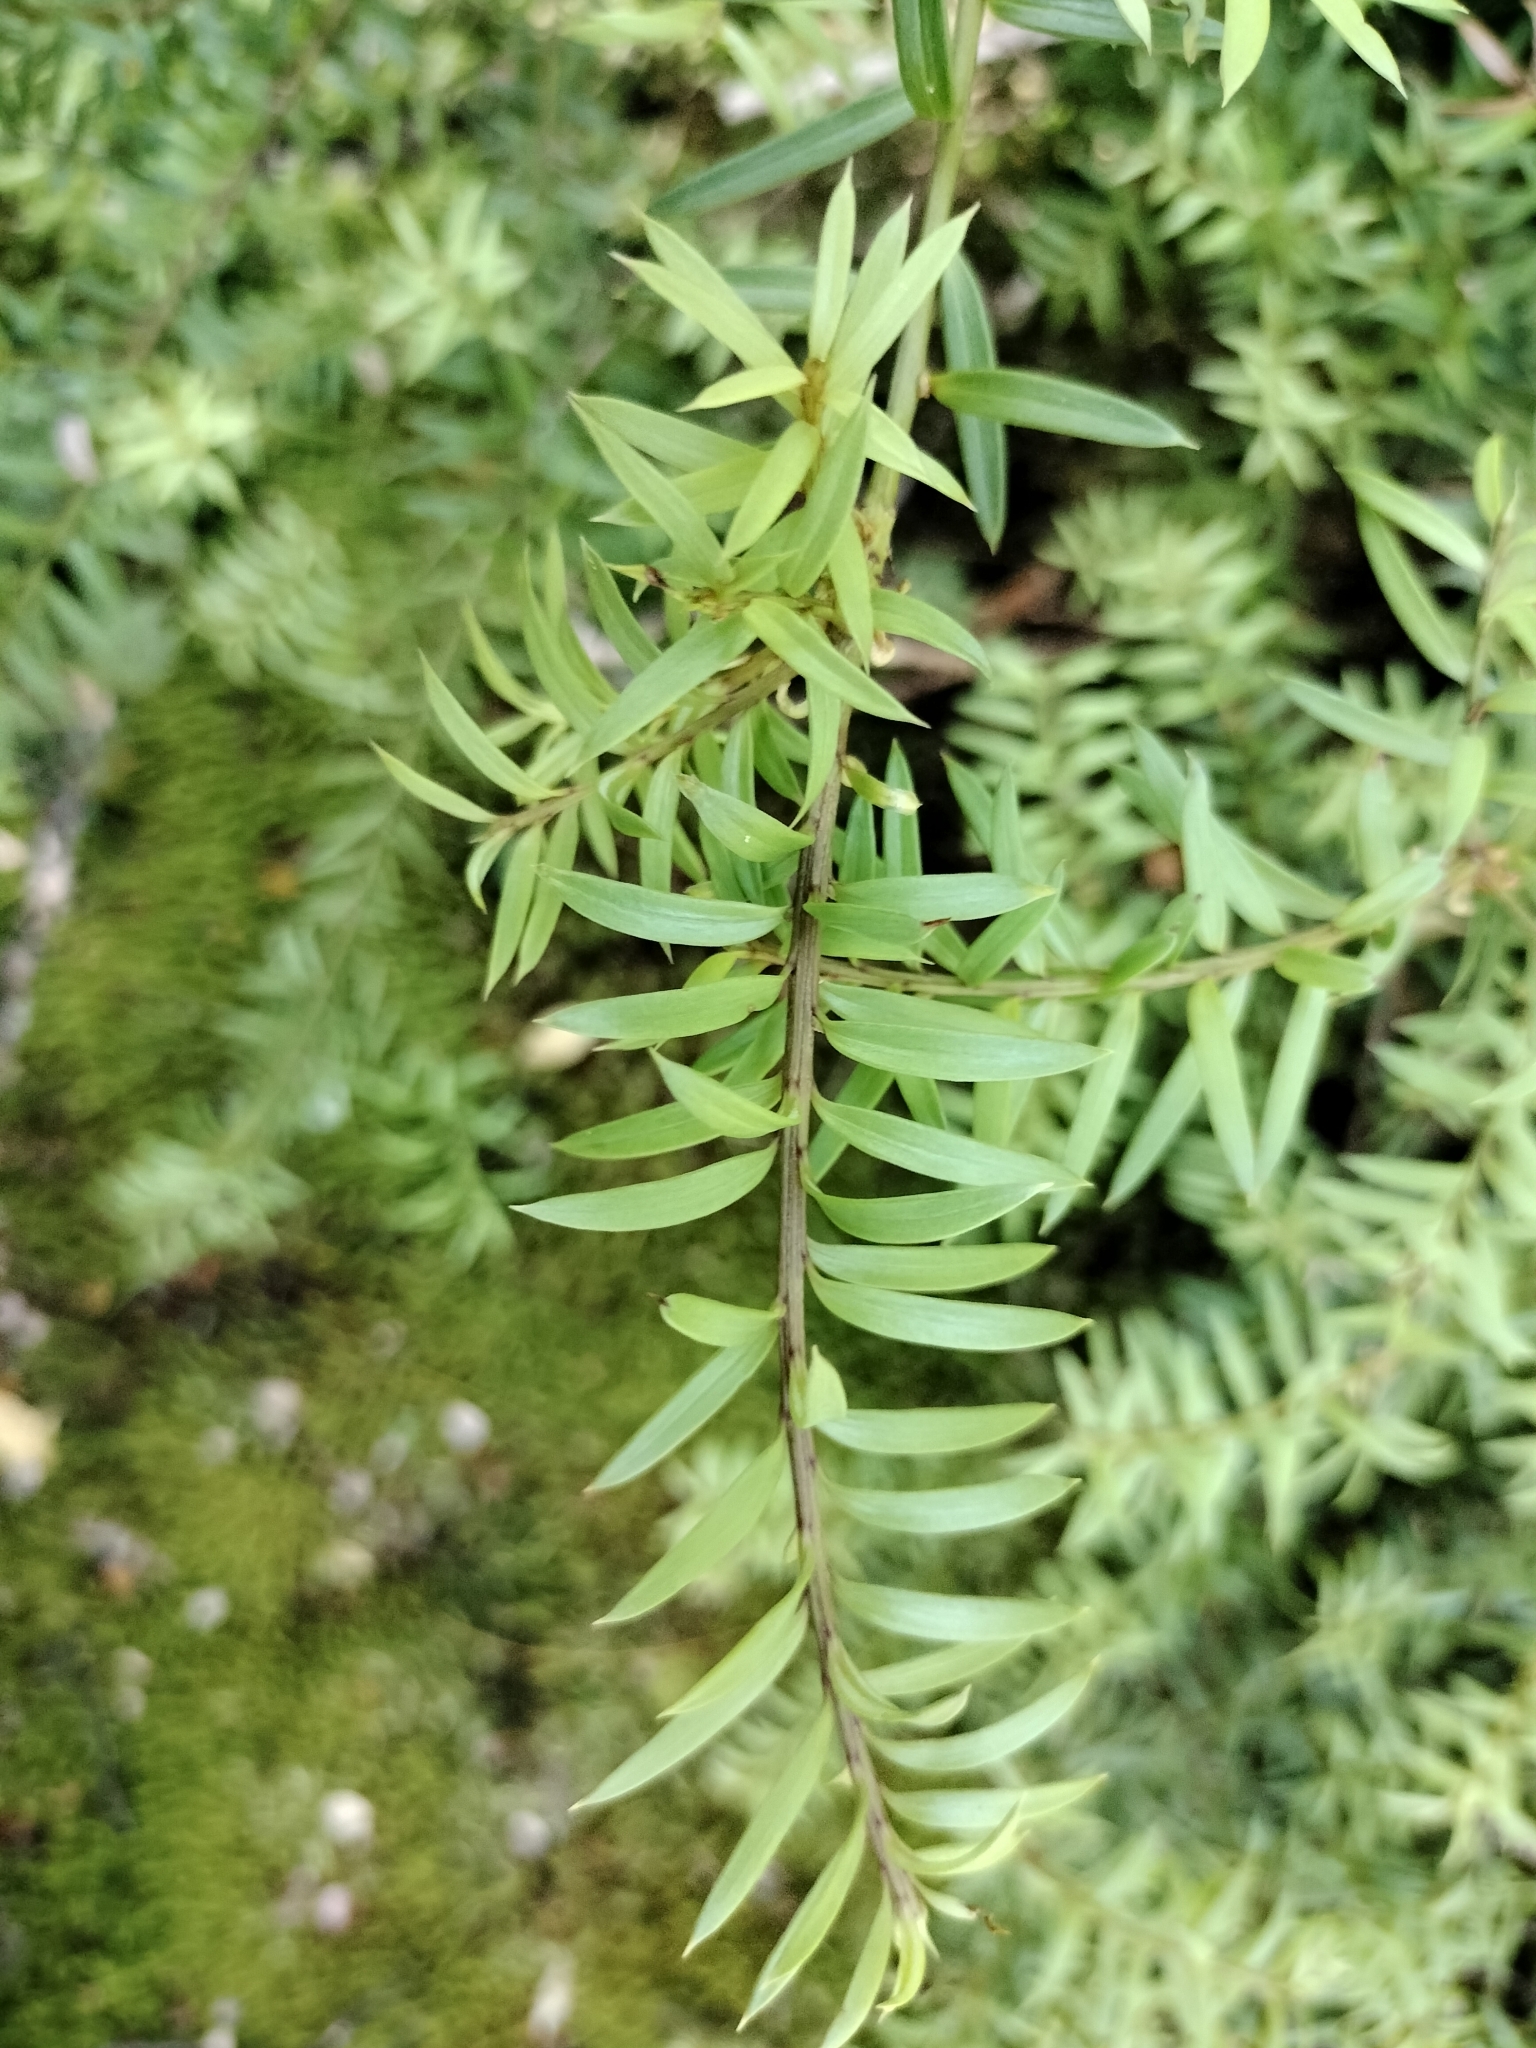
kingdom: Plantae
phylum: Tracheophyta
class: Pinopsida
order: Pinales
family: Podocarpaceae
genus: Podocarpus
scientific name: Podocarpus laetus
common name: Hall's totara
